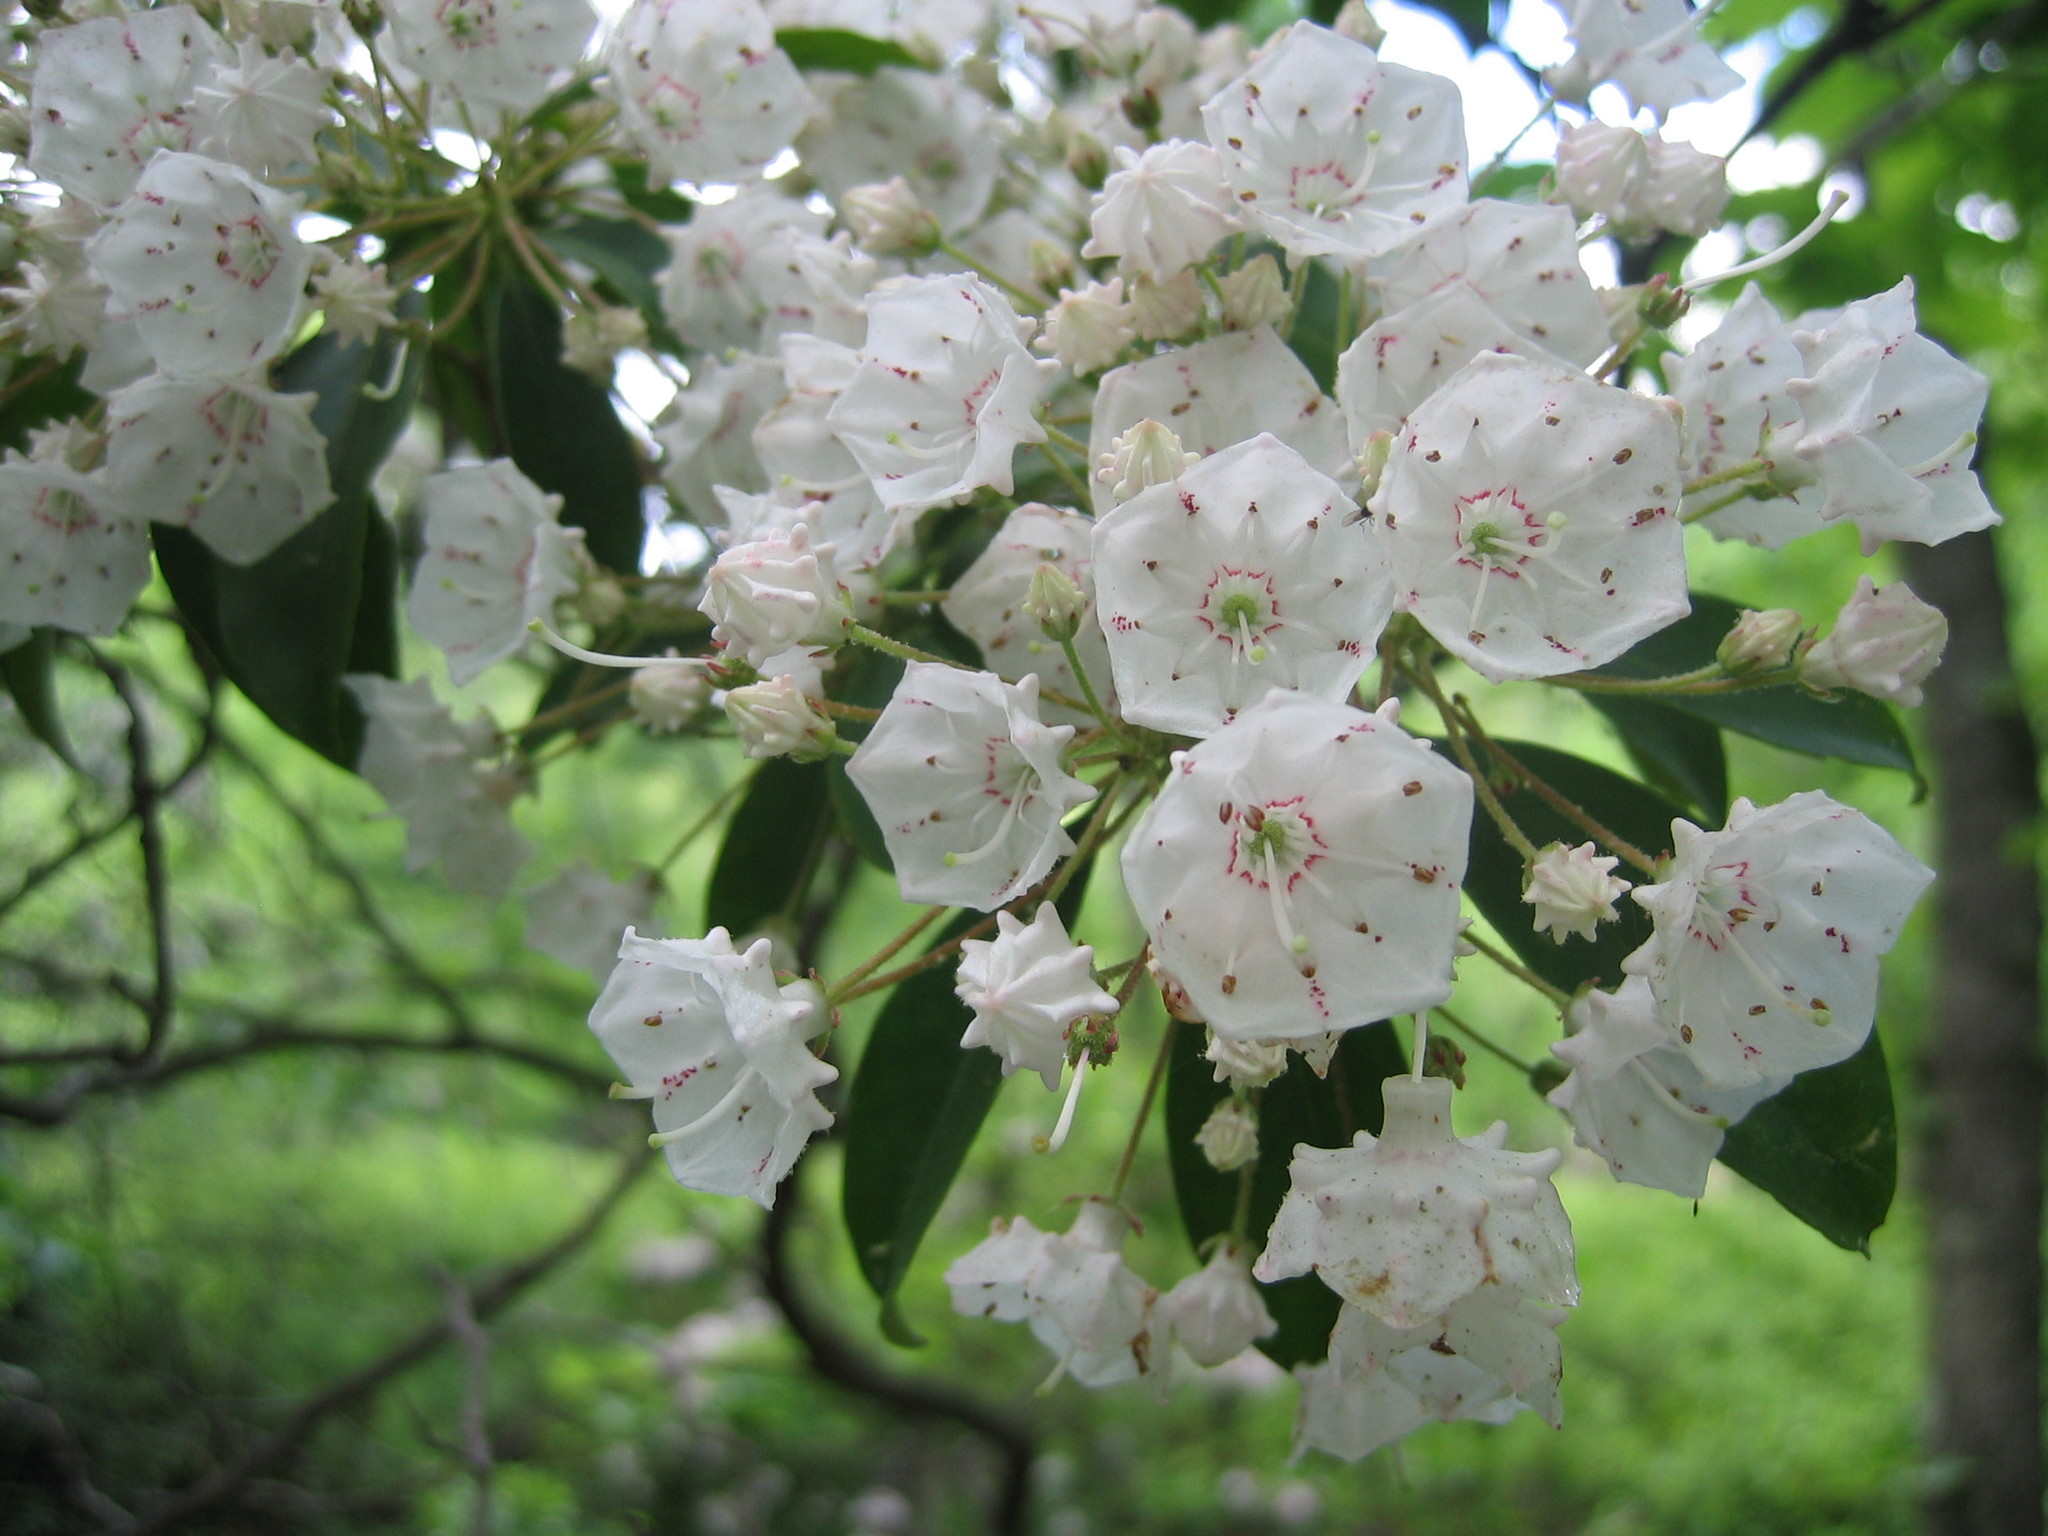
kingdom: Plantae
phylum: Tracheophyta
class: Magnoliopsida
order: Ericales
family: Ericaceae
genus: Kalmia
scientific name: Kalmia latifolia
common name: Mountain-laurel
